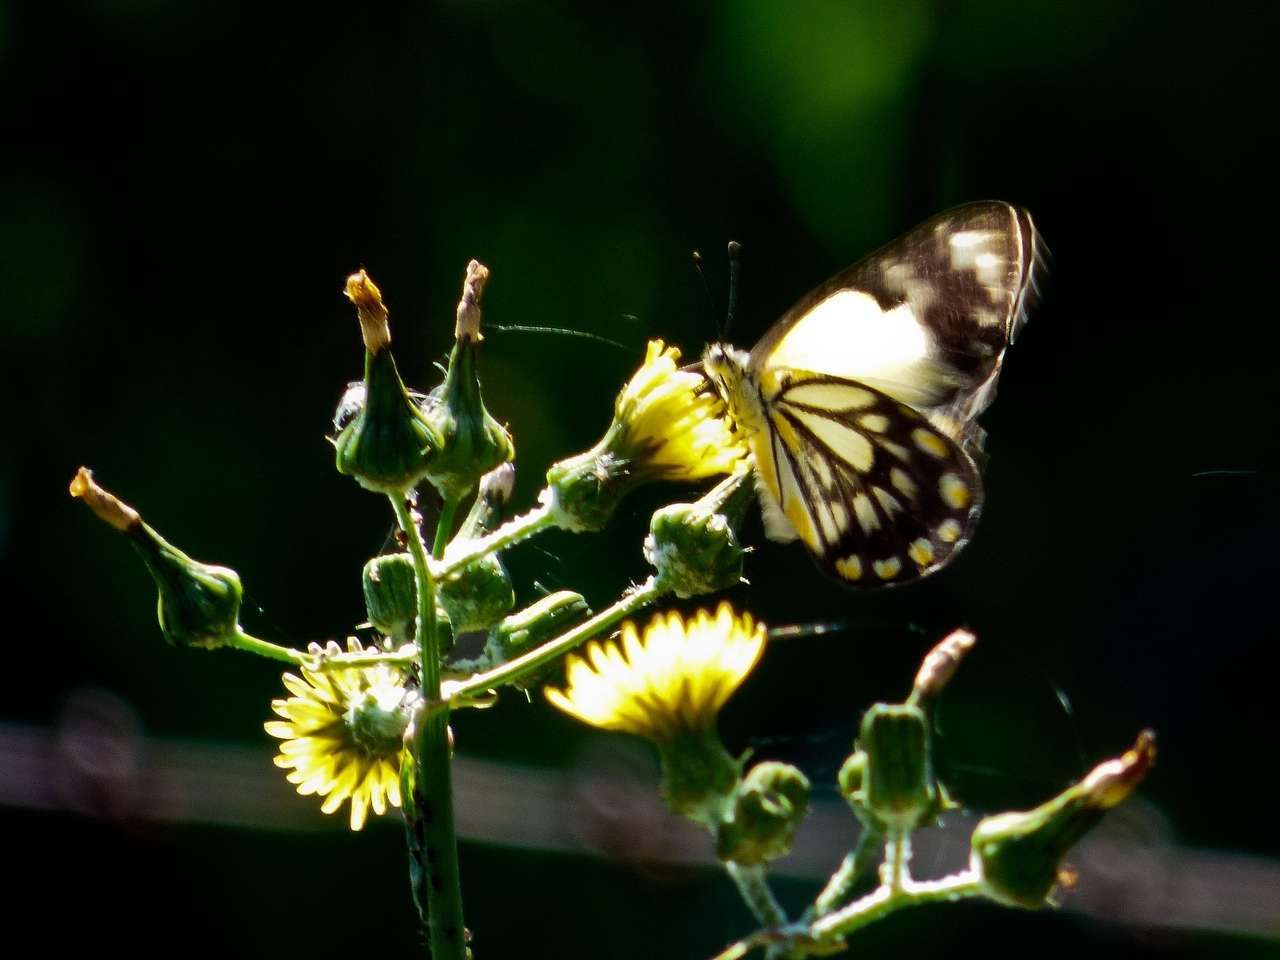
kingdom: Animalia
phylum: Arthropoda
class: Insecta
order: Lepidoptera
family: Pieridae
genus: Belenois
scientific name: Belenois java
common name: Caper white
